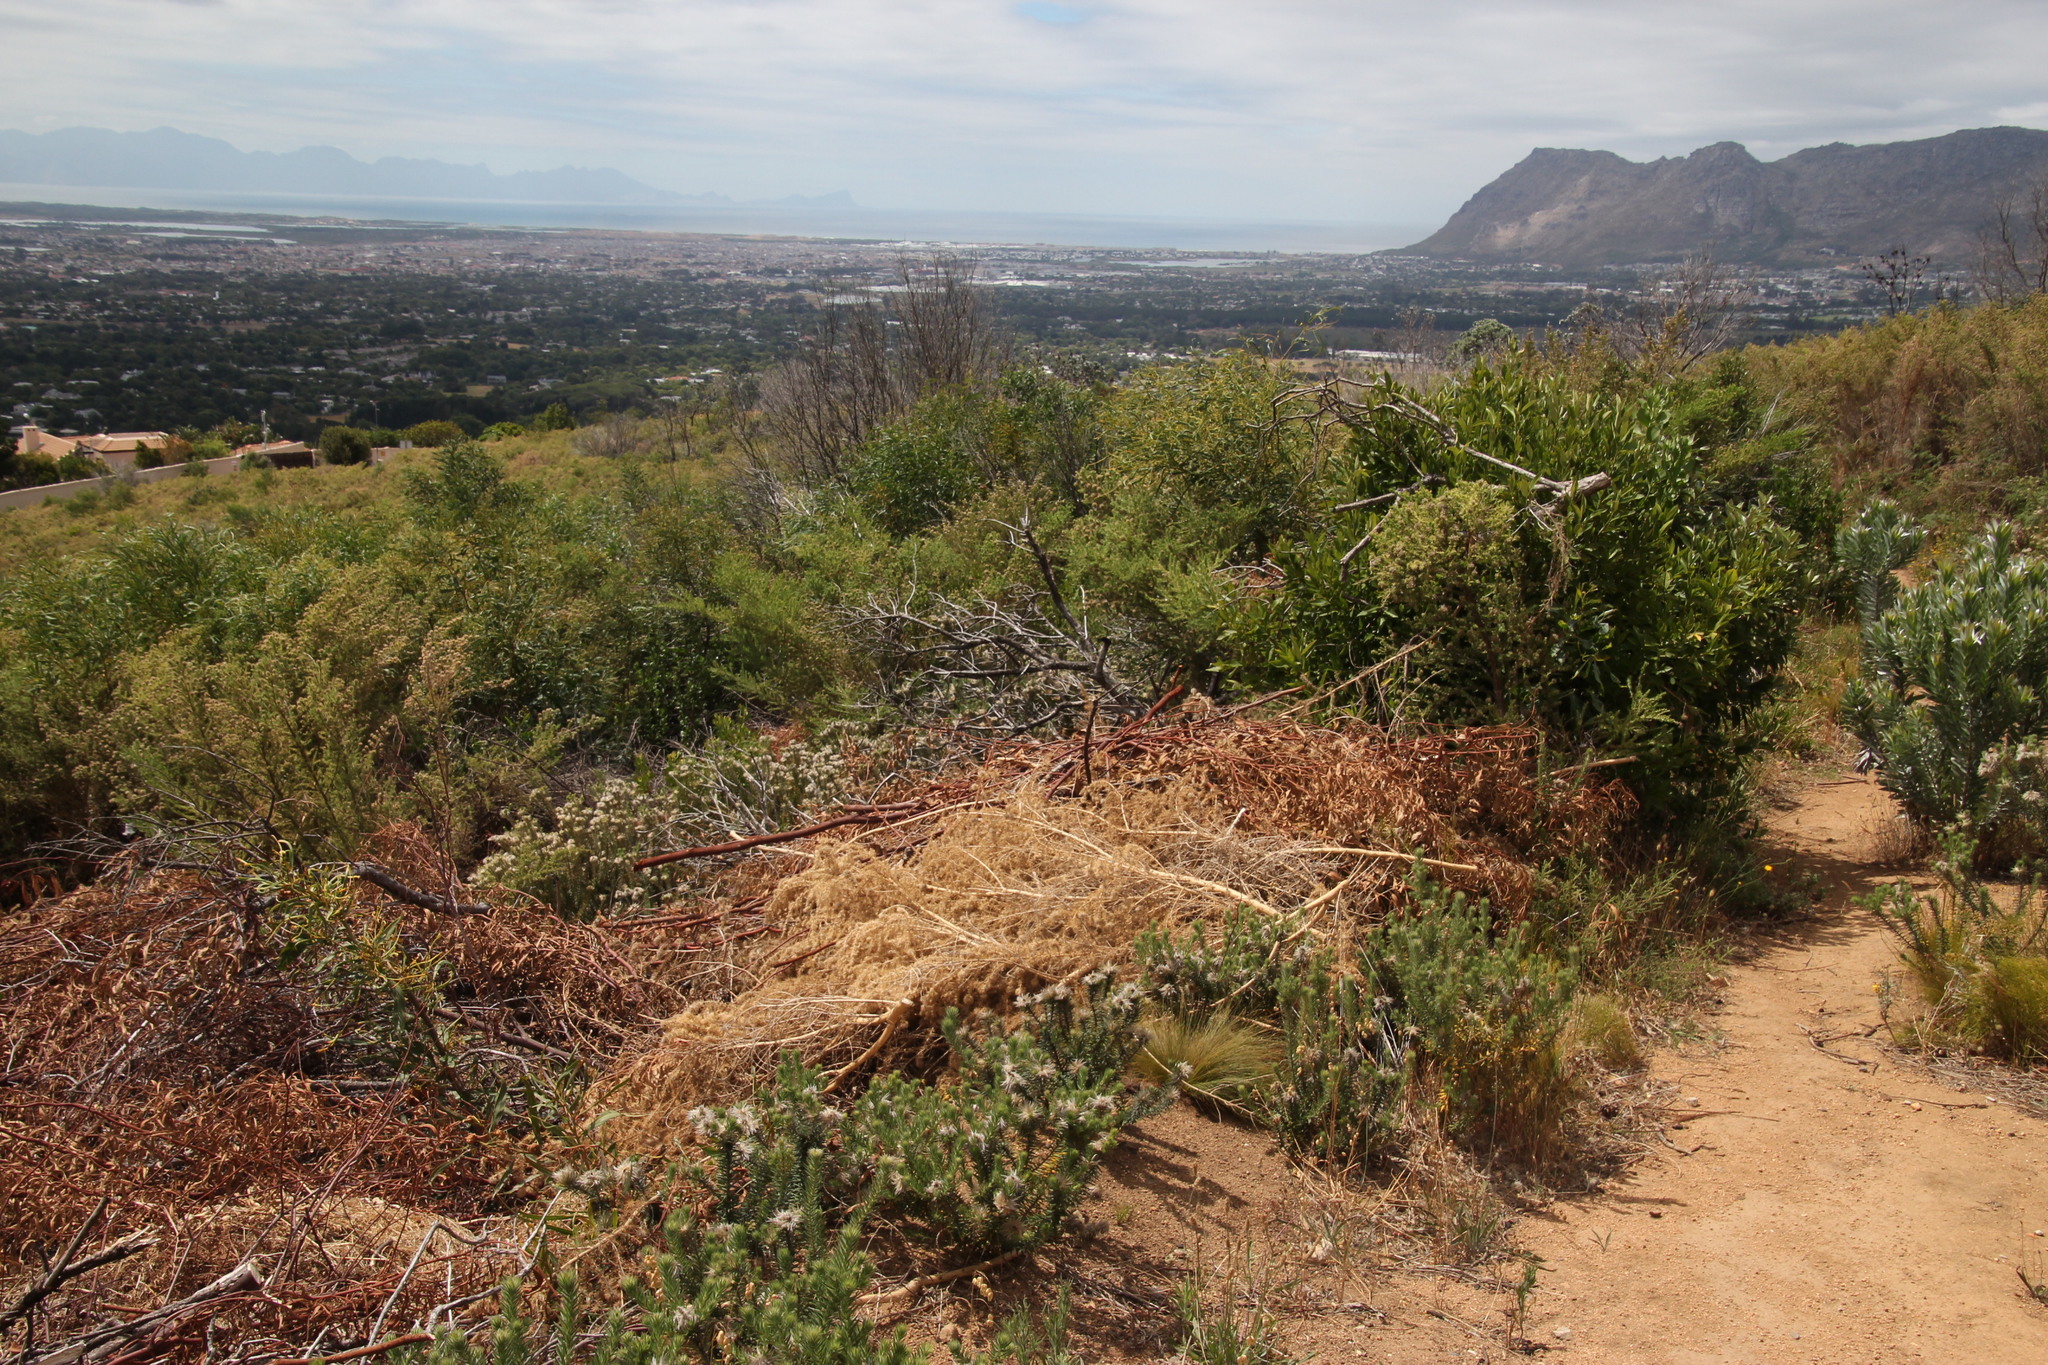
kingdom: Plantae
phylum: Tracheophyta
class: Magnoliopsida
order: Fabales
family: Fabaceae
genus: Aspalathus
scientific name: Aspalathus chenopoda
